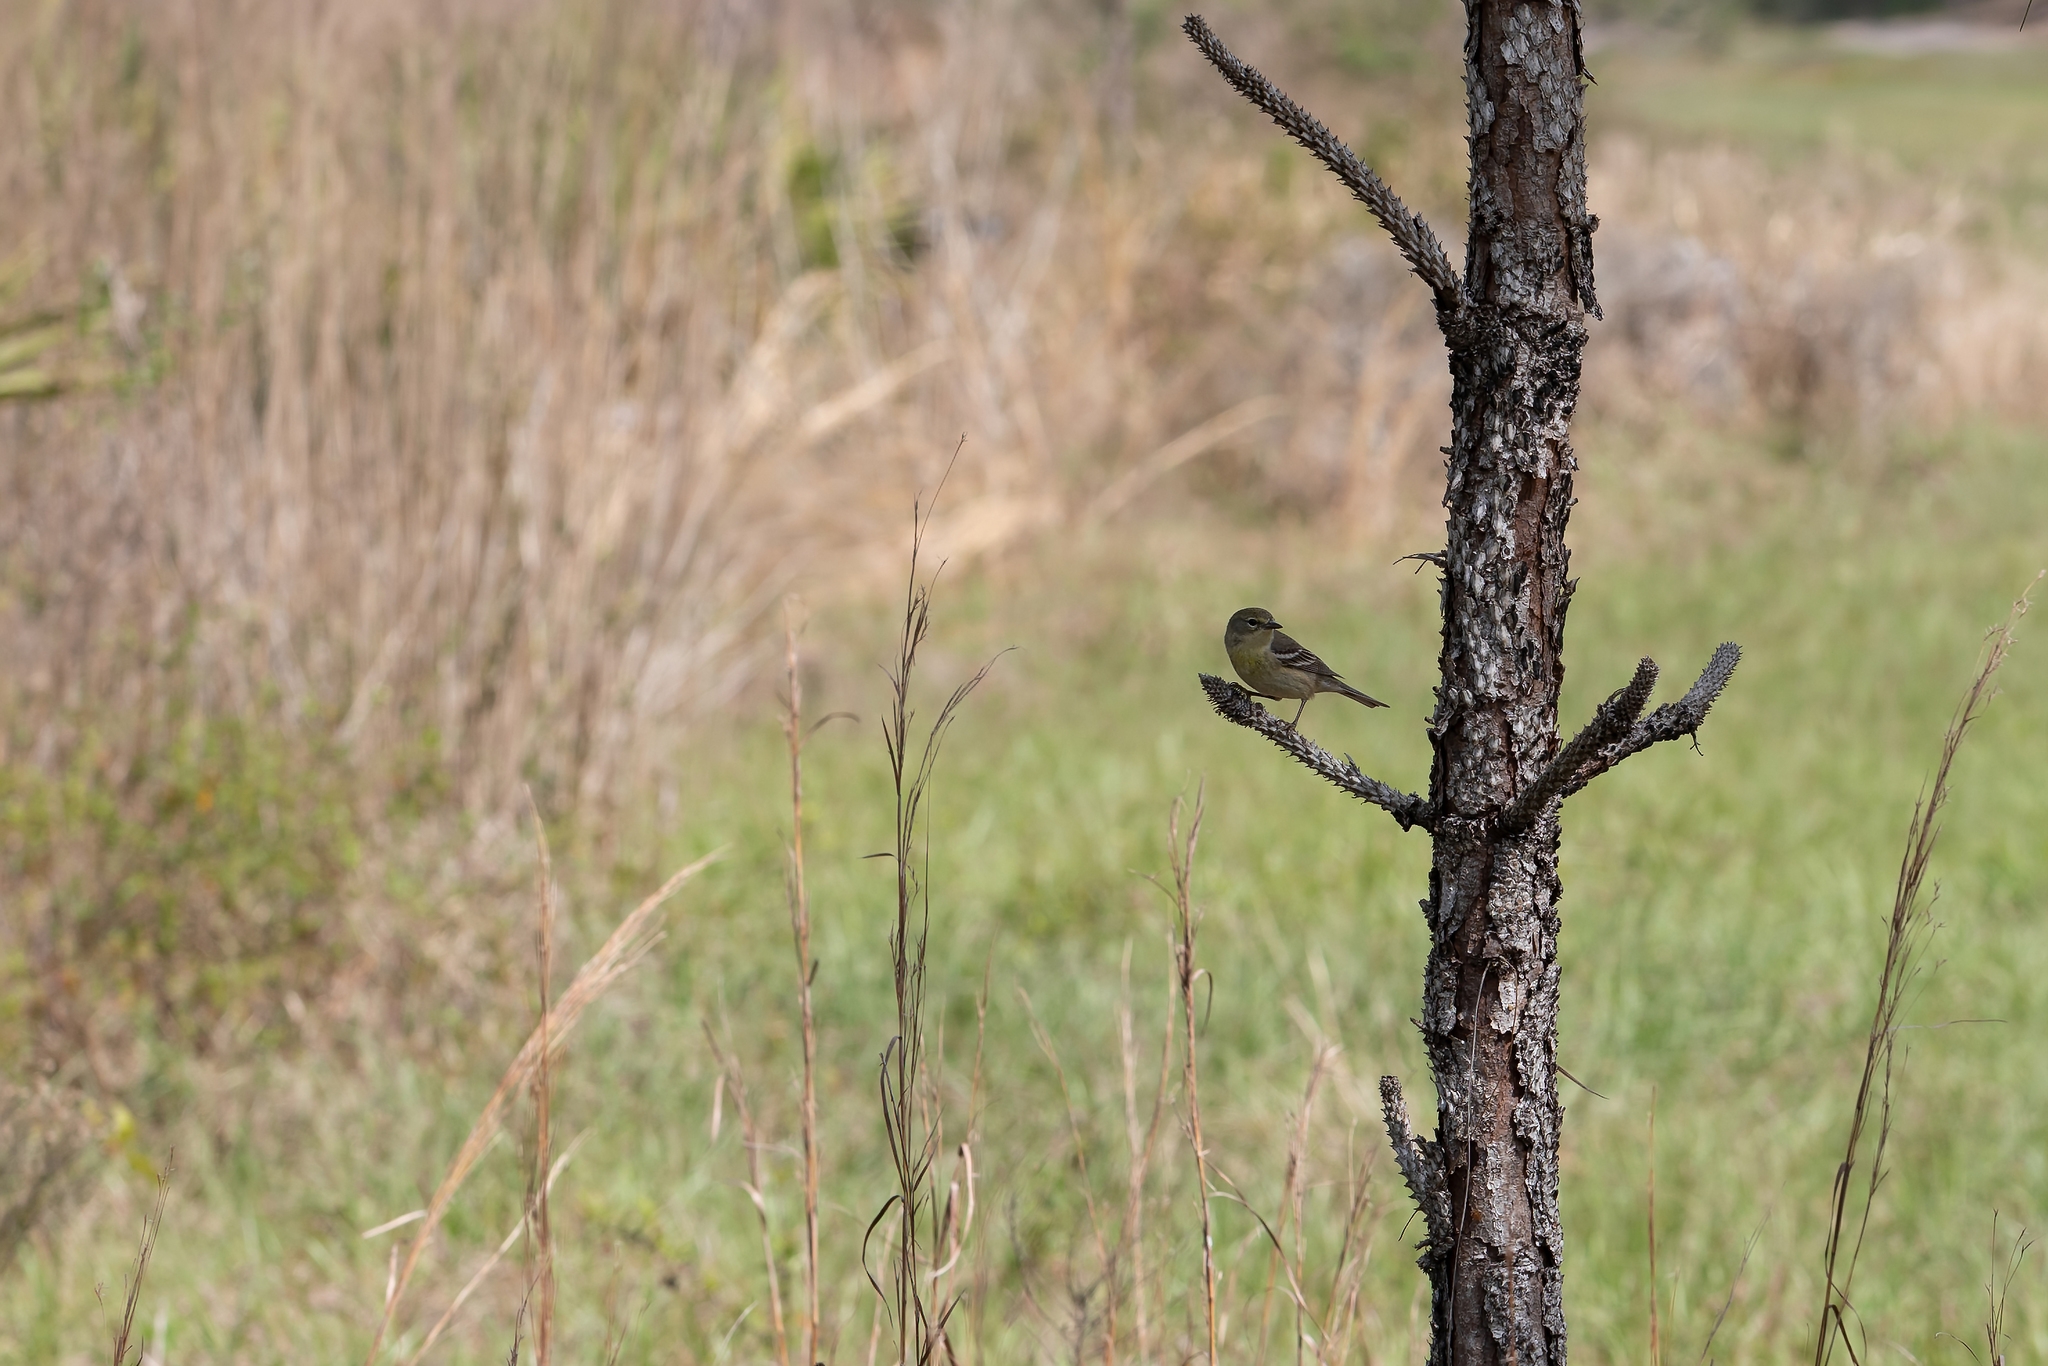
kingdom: Animalia
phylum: Chordata
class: Aves
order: Passeriformes
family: Parulidae
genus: Setophaga
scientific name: Setophaga pinus
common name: Pine warbler
